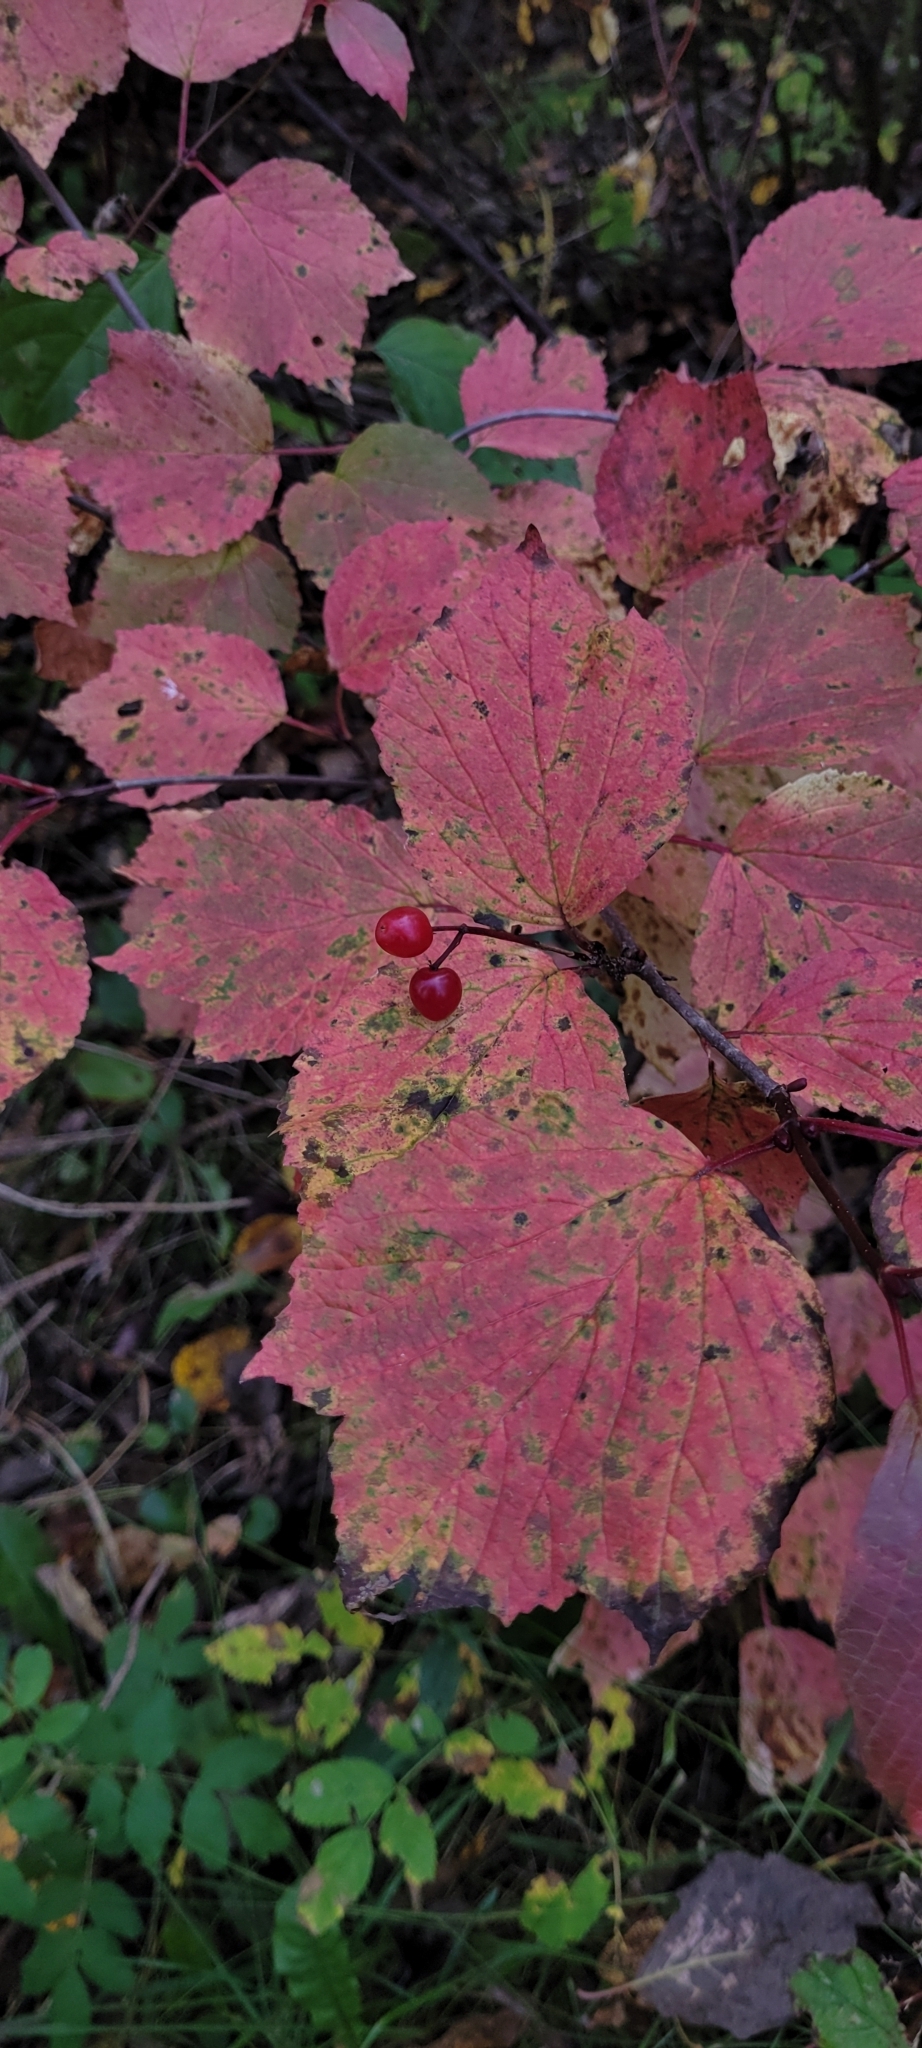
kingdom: Plantae
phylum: Tracheophyta
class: Magnoliopsida
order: Dipsacales
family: Viburnaceae
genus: Viburnum
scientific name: Viburnum edule
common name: Mooseberry
